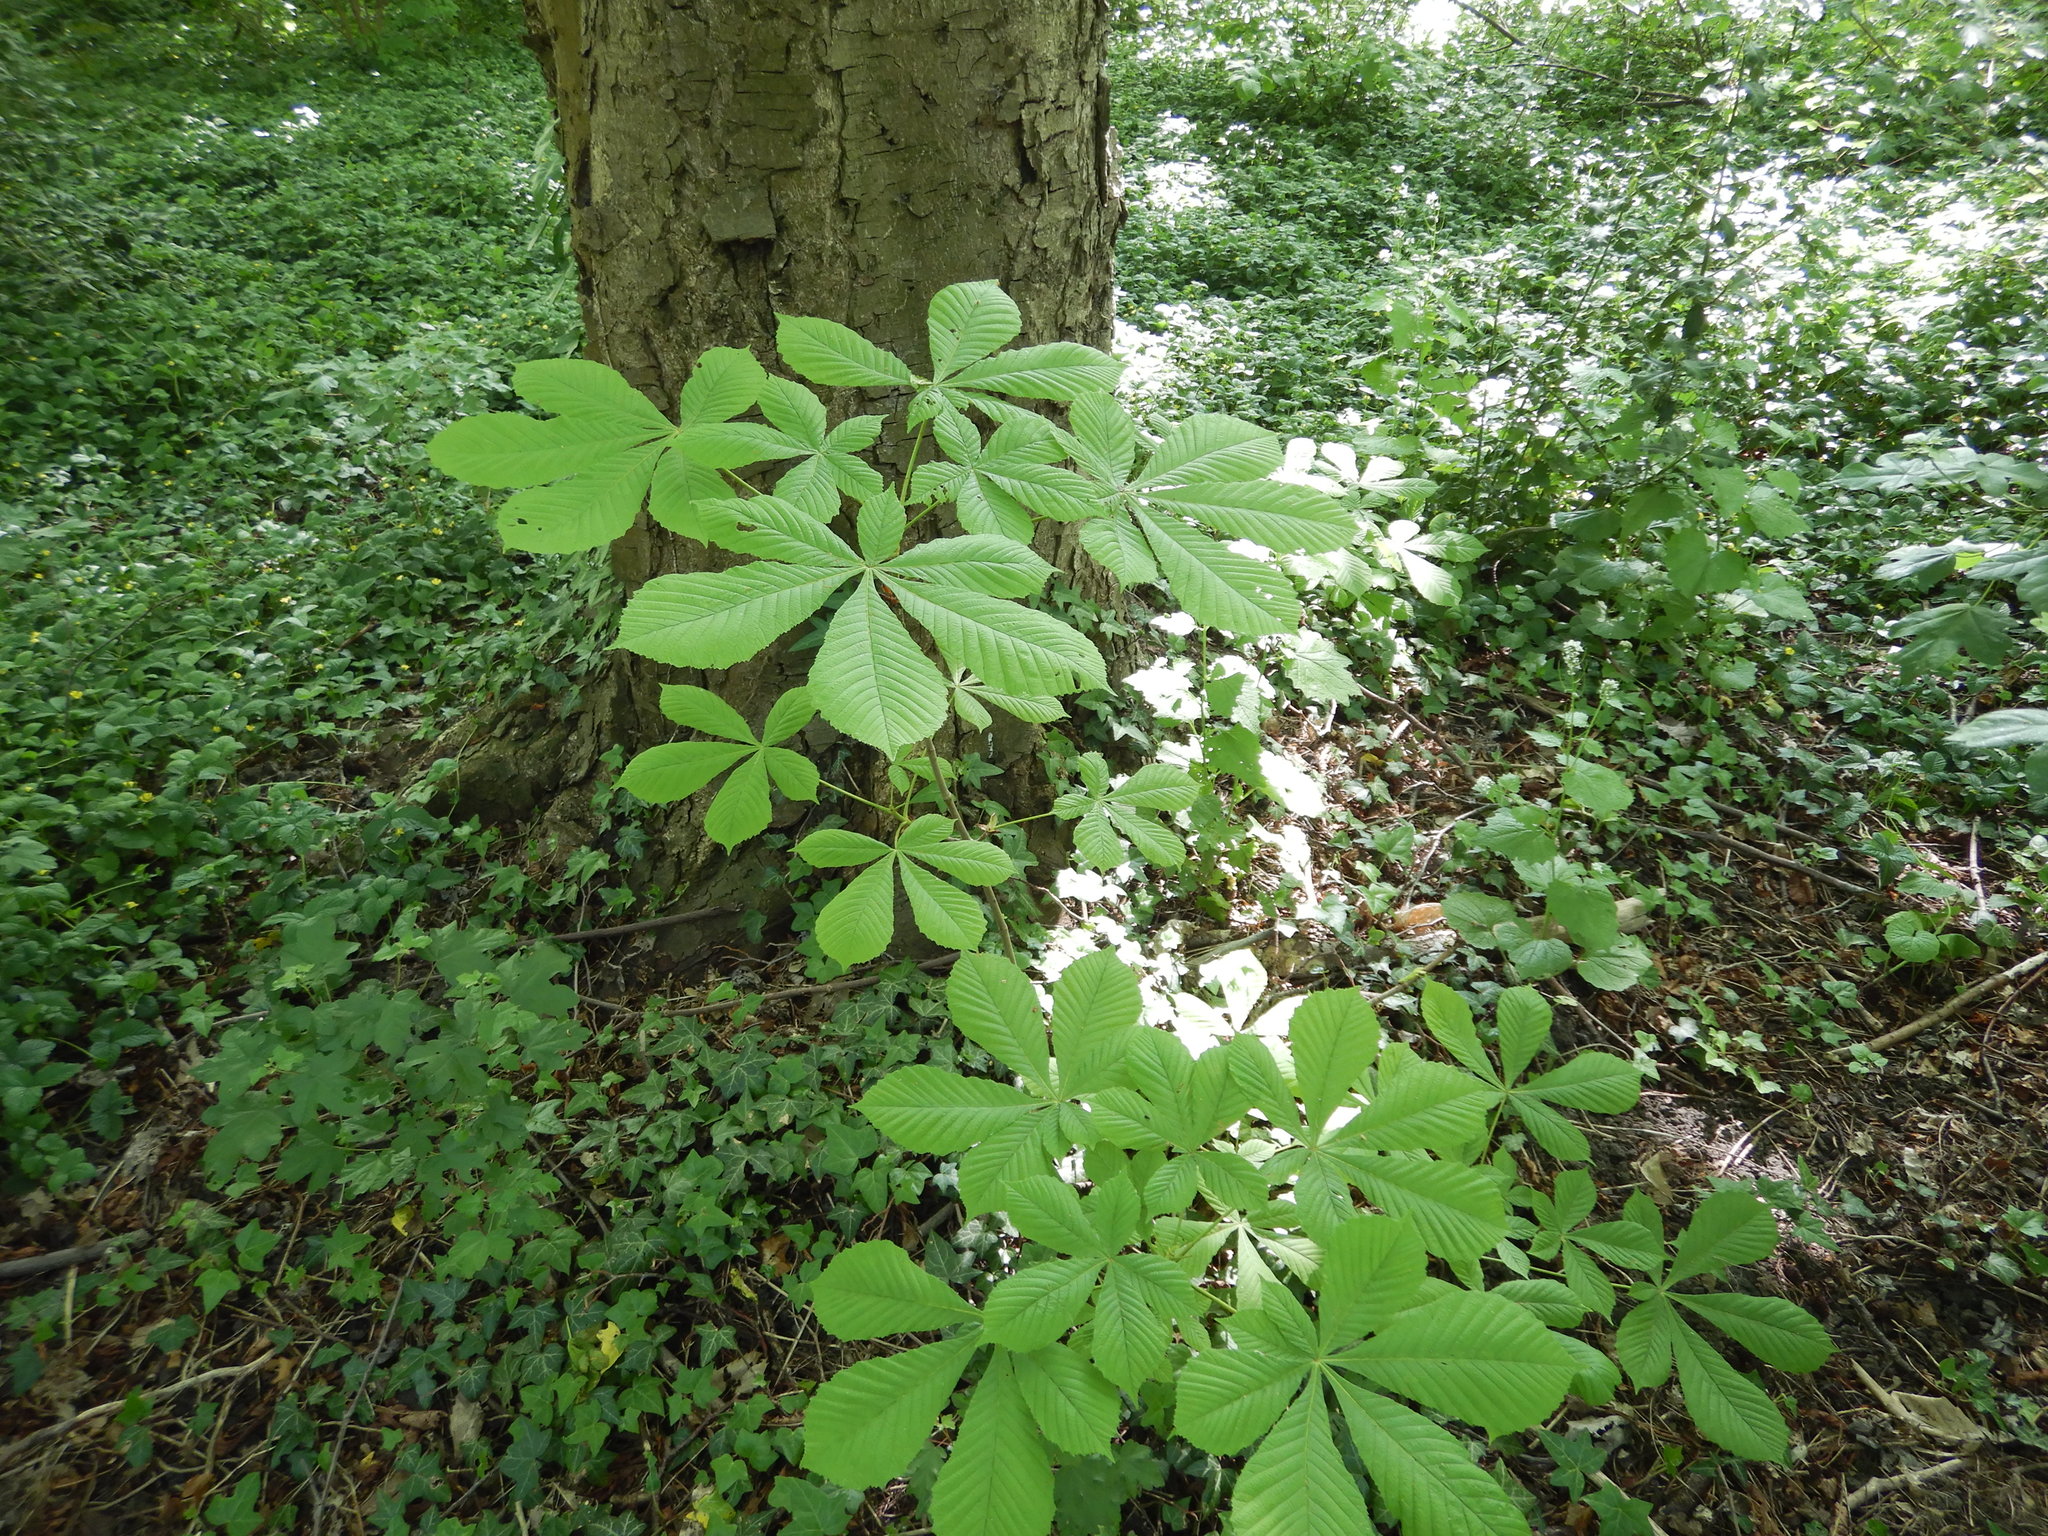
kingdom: Plantae
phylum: Tracheophyta
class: Magnoliopsida
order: Sapindales
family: Sapindaceae
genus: Aesculus
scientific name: Aesculus hippocastanum
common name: Horse-chestnut
